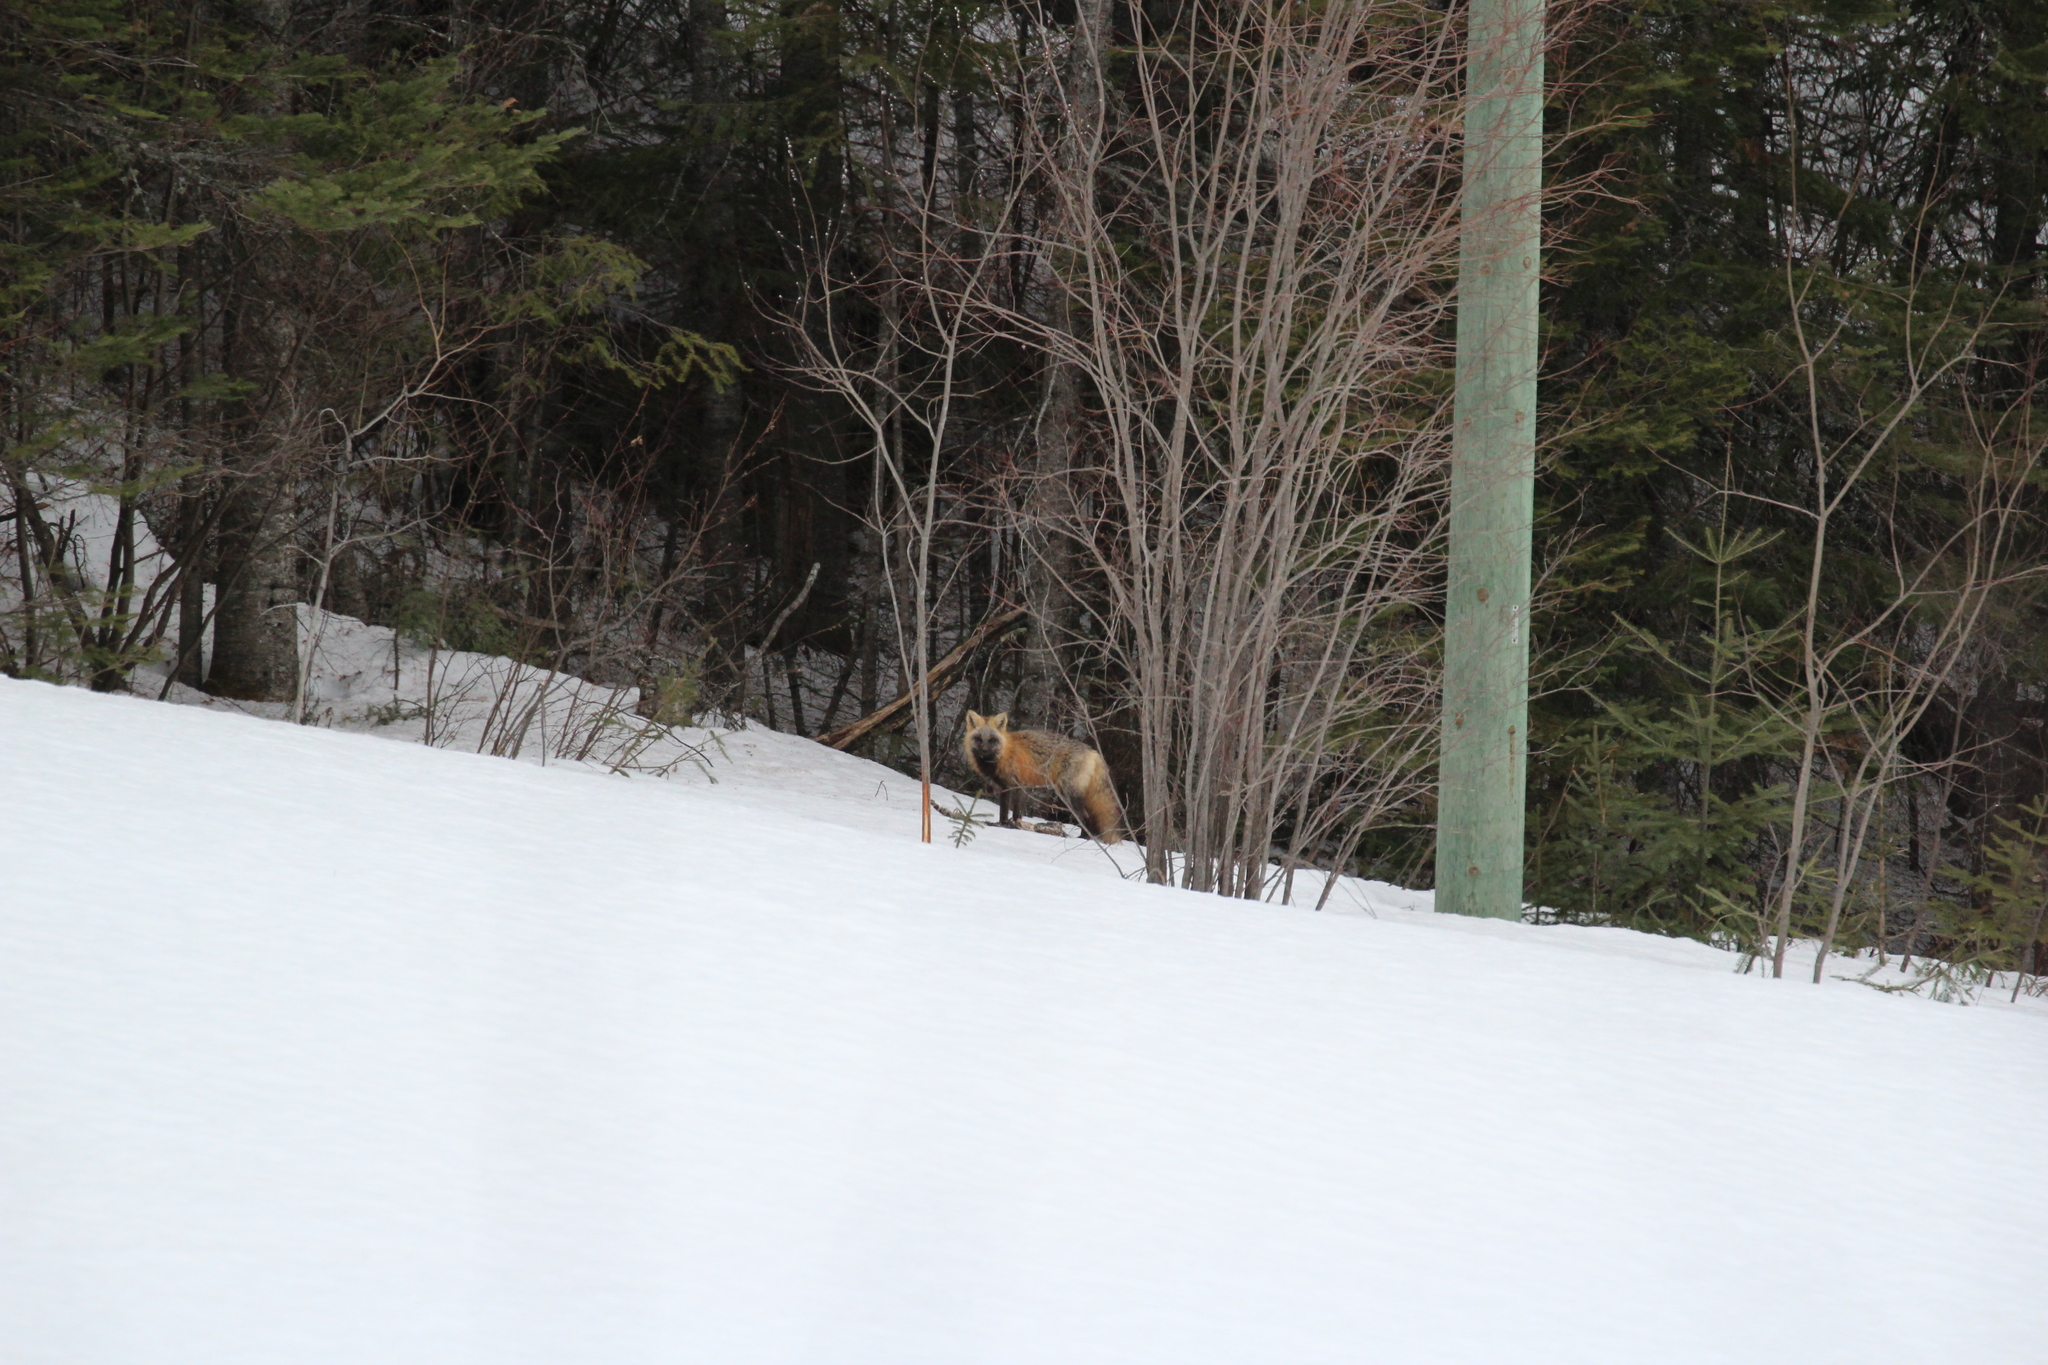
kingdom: Animalia
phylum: Chordata
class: Mammalia
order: Carnivora
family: Canidae
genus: Vulpes
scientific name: Vulpes vulpes
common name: Red fox
